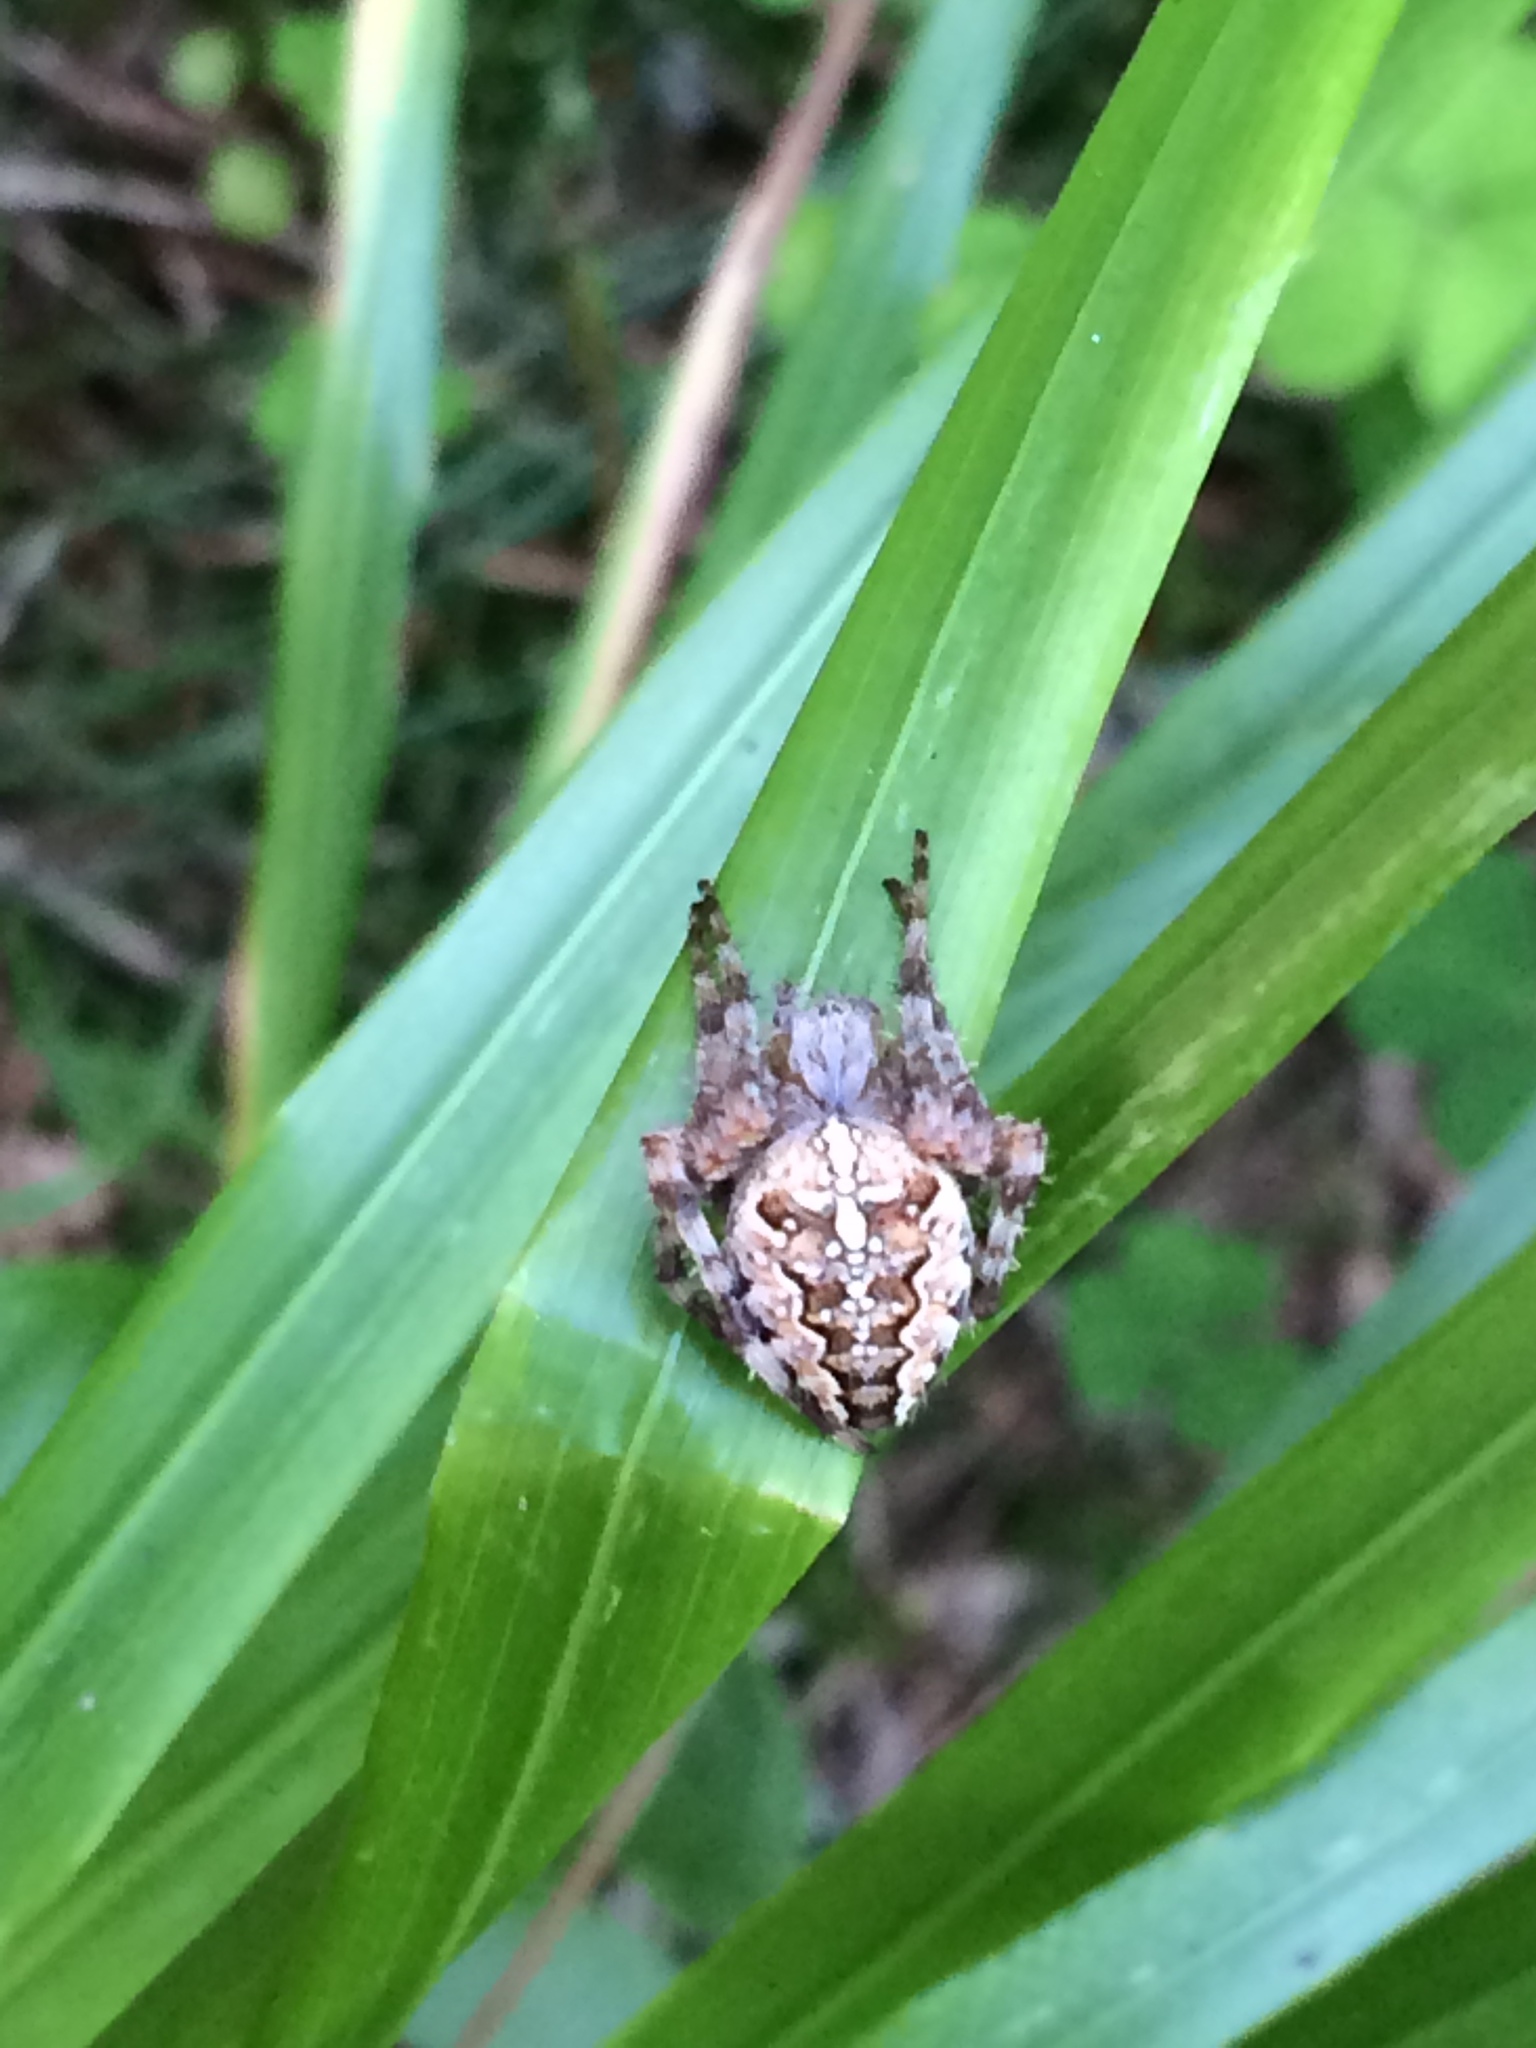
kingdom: Animalia
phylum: Arthropoda
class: Arachnida
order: Araneae
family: Araneidae
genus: Araneus
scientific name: Araneus diadematus
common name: Cross orbweaver
